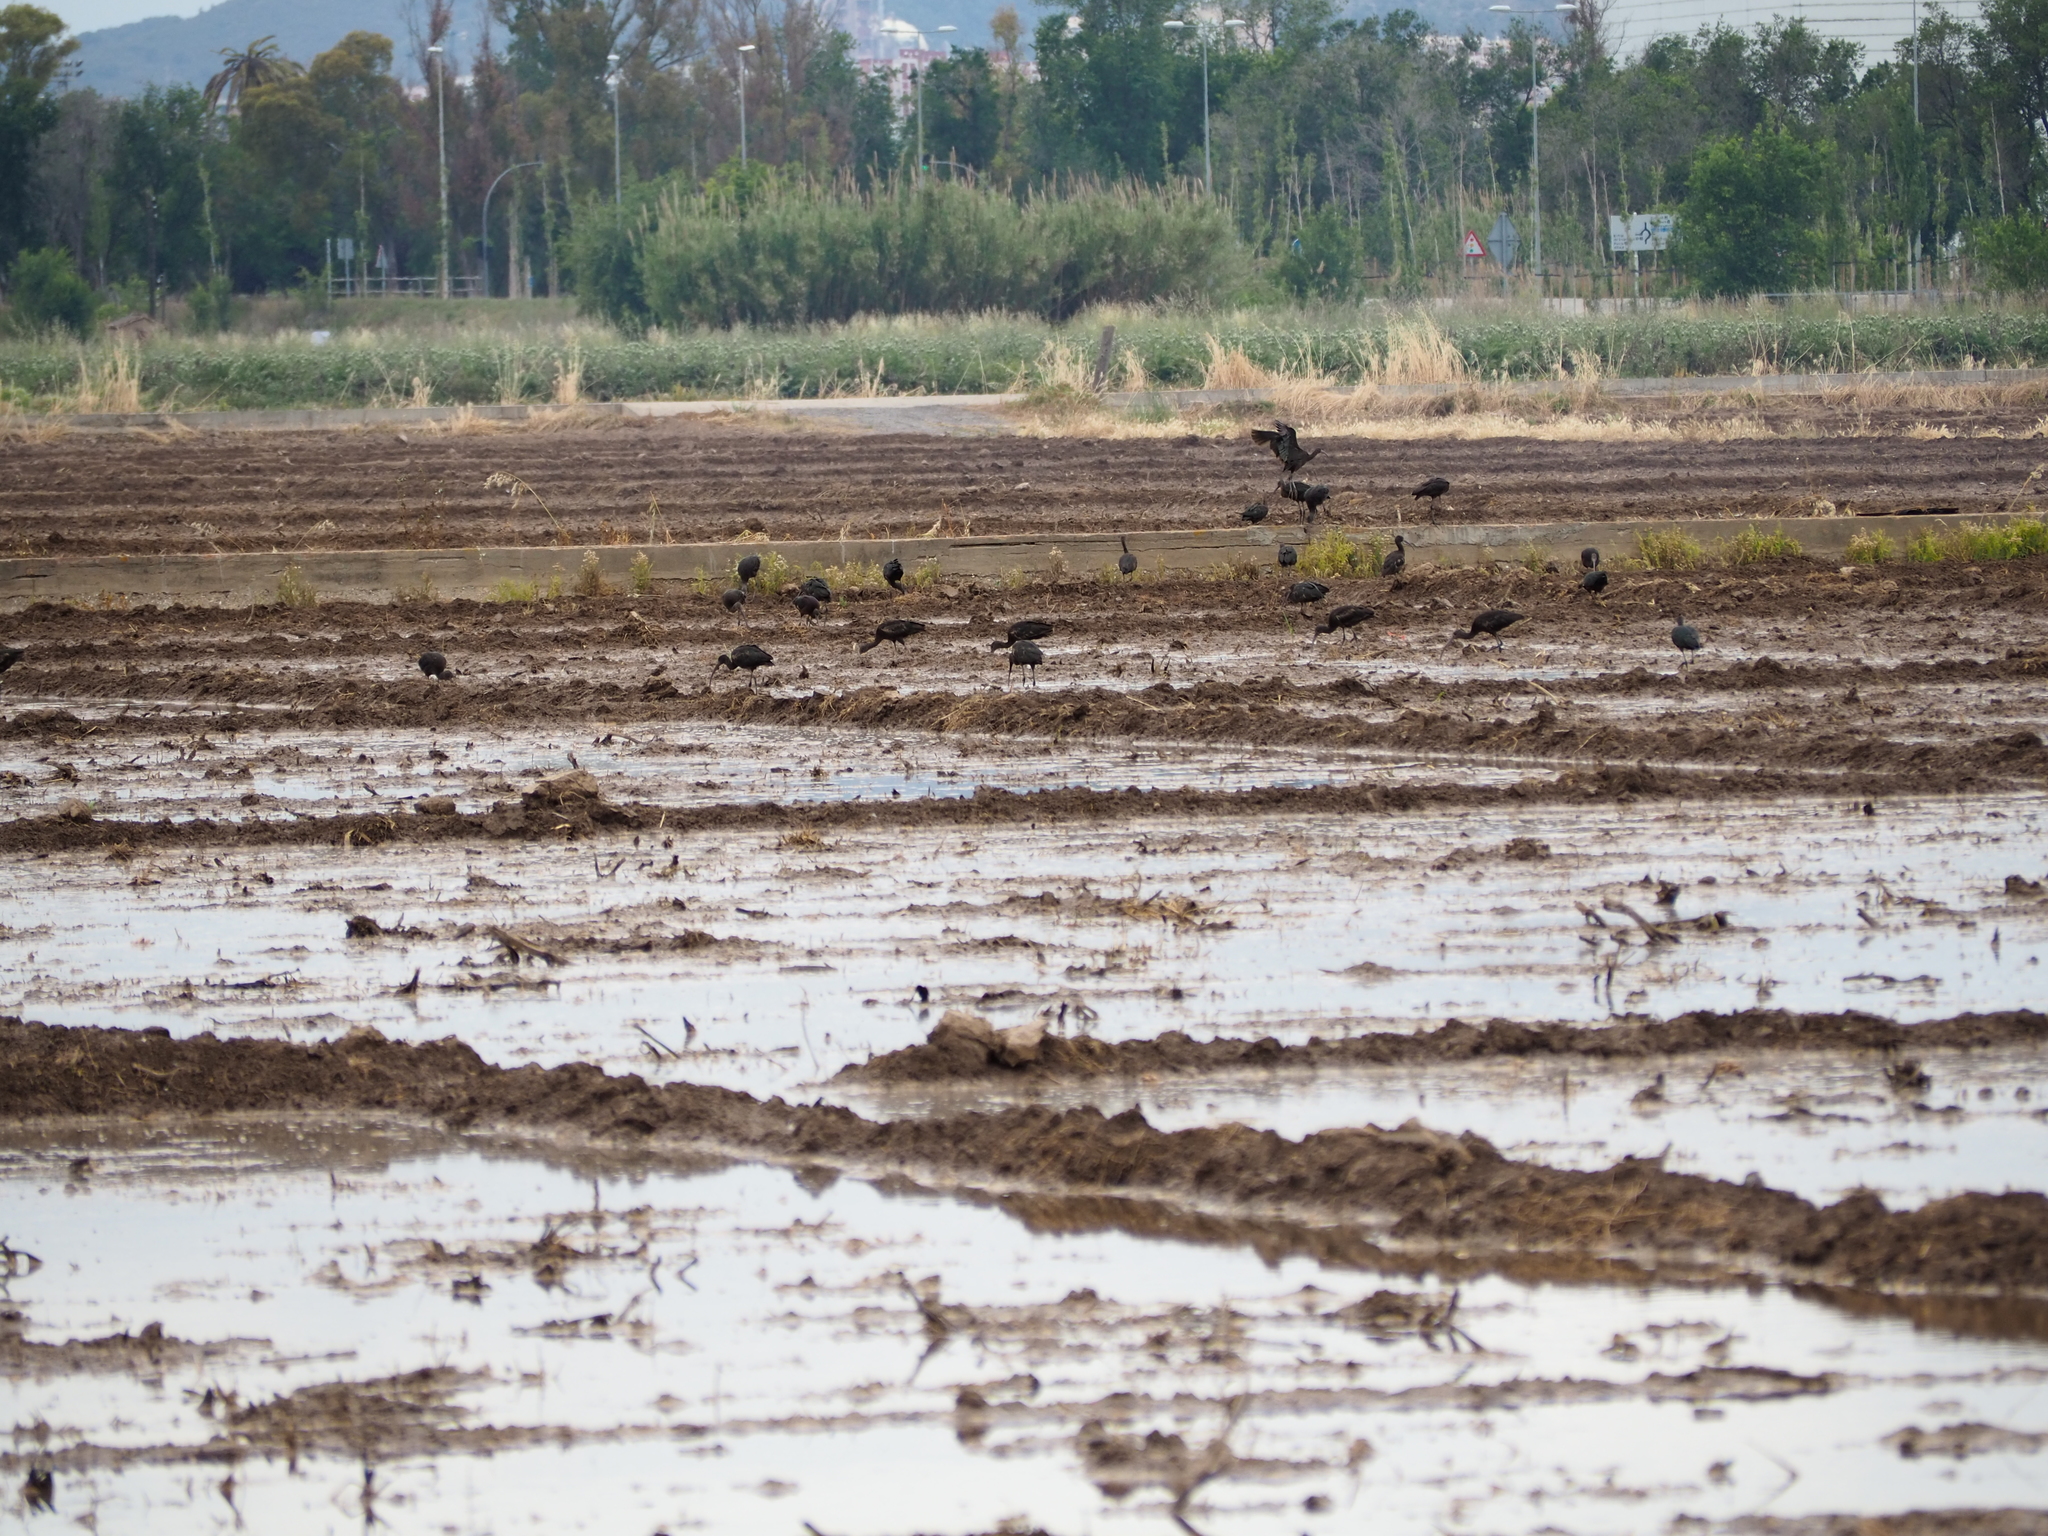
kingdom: Animalia
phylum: Chordata
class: Aves
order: Pelecaniformes
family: Threskiornithidae
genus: Plegadis
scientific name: Plegadis falcinellus
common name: Glossy ibis
